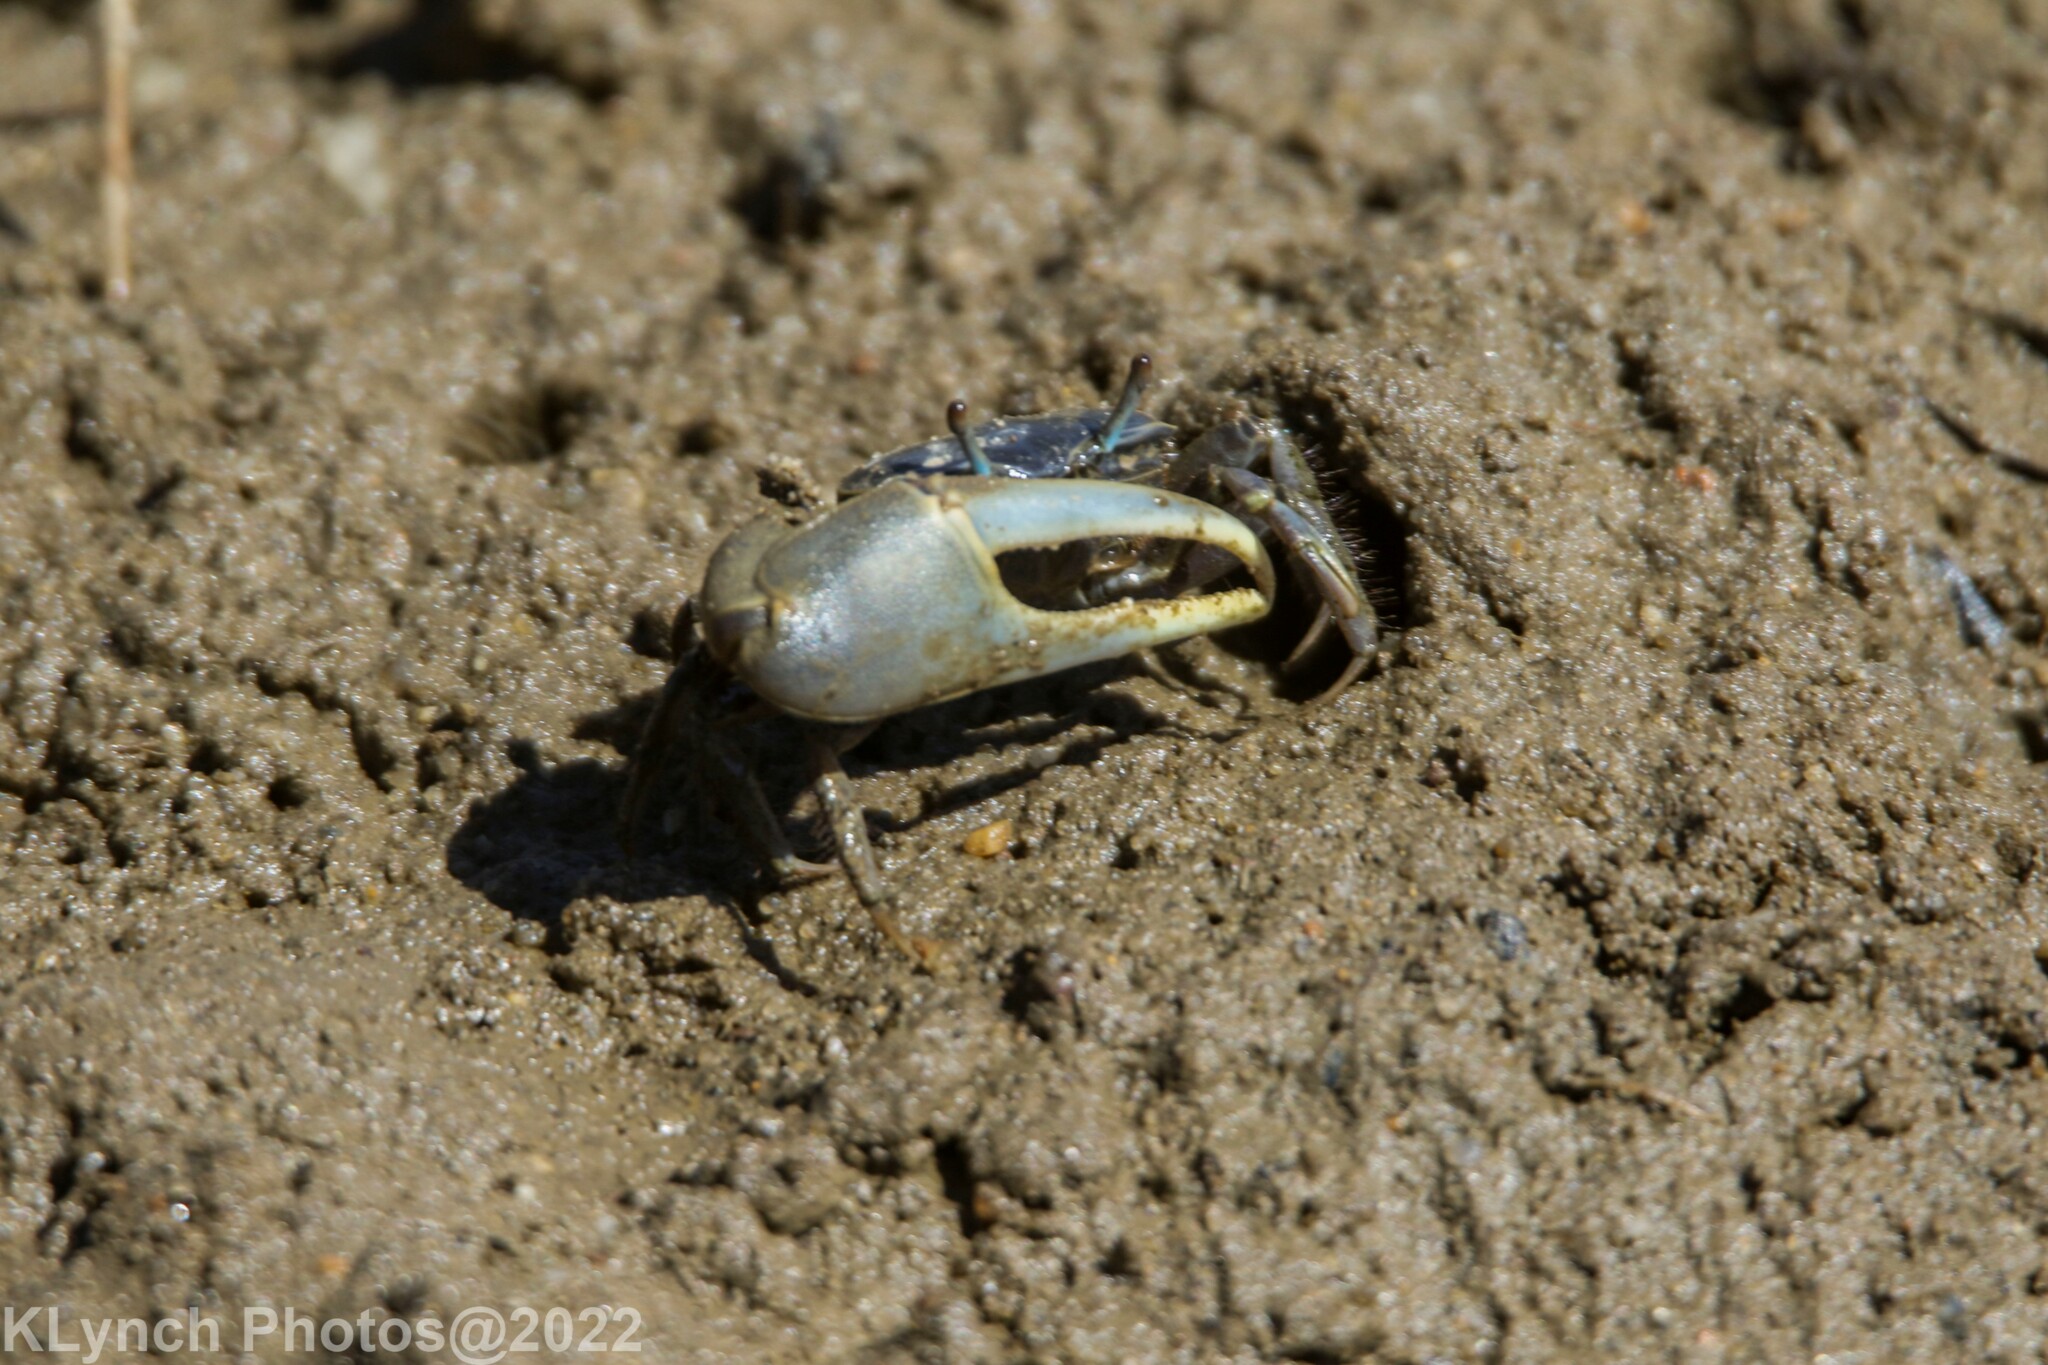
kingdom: Animalia
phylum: Arthropoda
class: Malacostraca
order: Decapoda
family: Ocypodidae
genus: Minuca
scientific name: Minuca pugnax
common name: Mud fiddler crab
